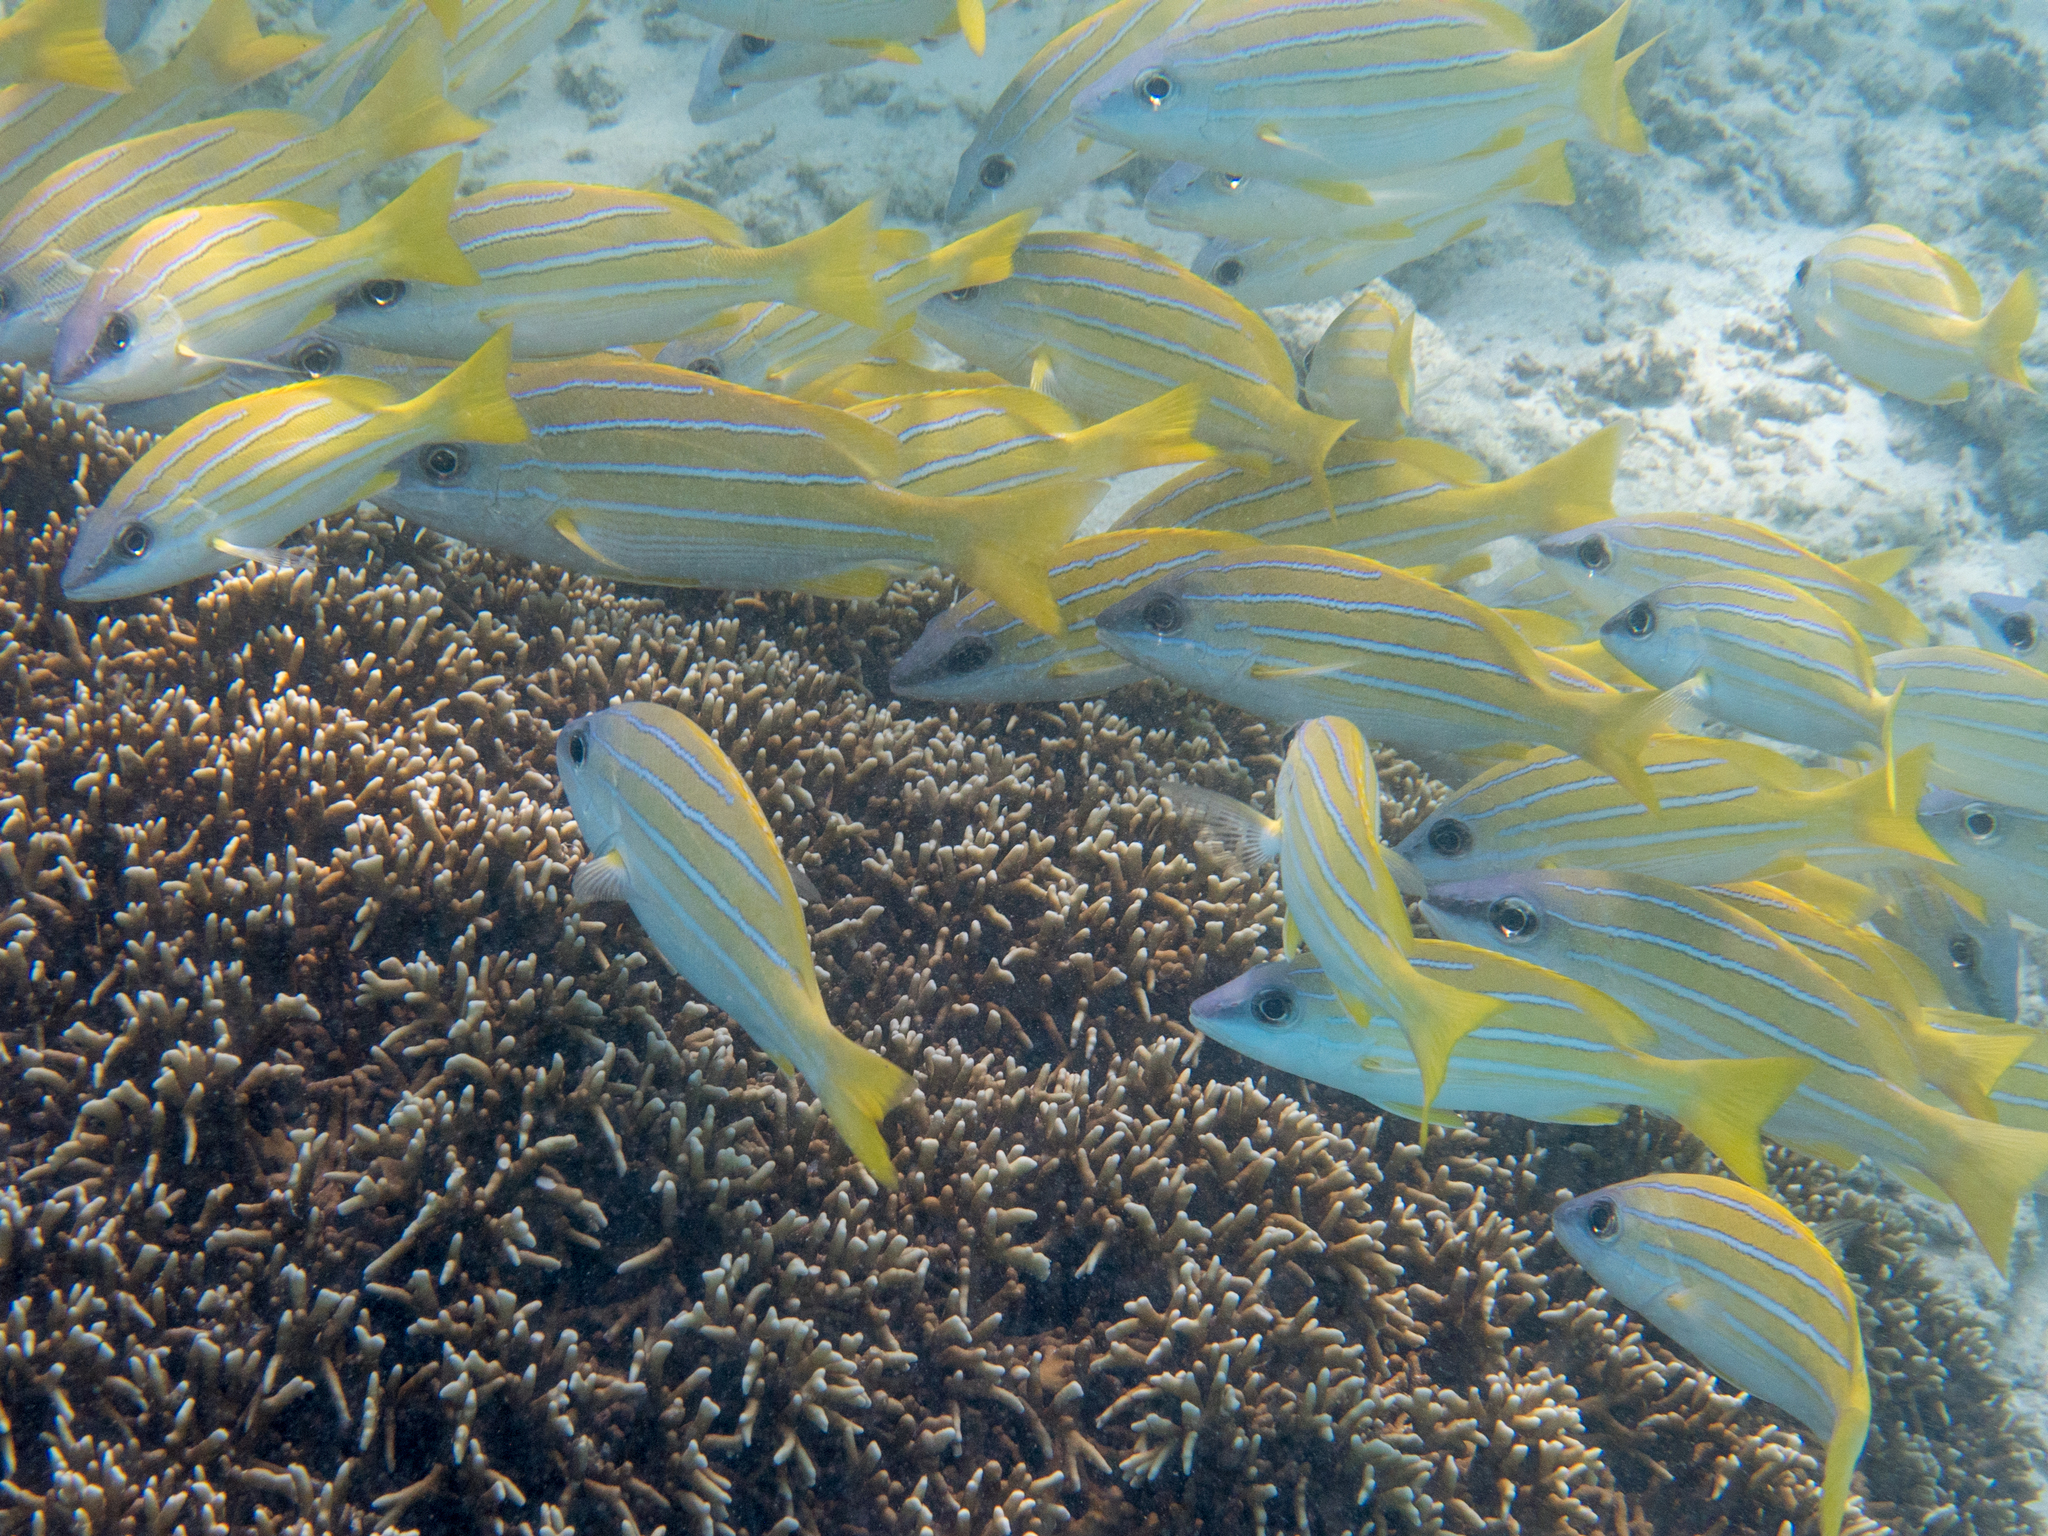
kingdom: Animalia
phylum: Chordata
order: Perciformes
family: Lutjanidae
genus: Lutjanus
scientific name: Lutjanus kasmira
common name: Common bluestripe snapper
